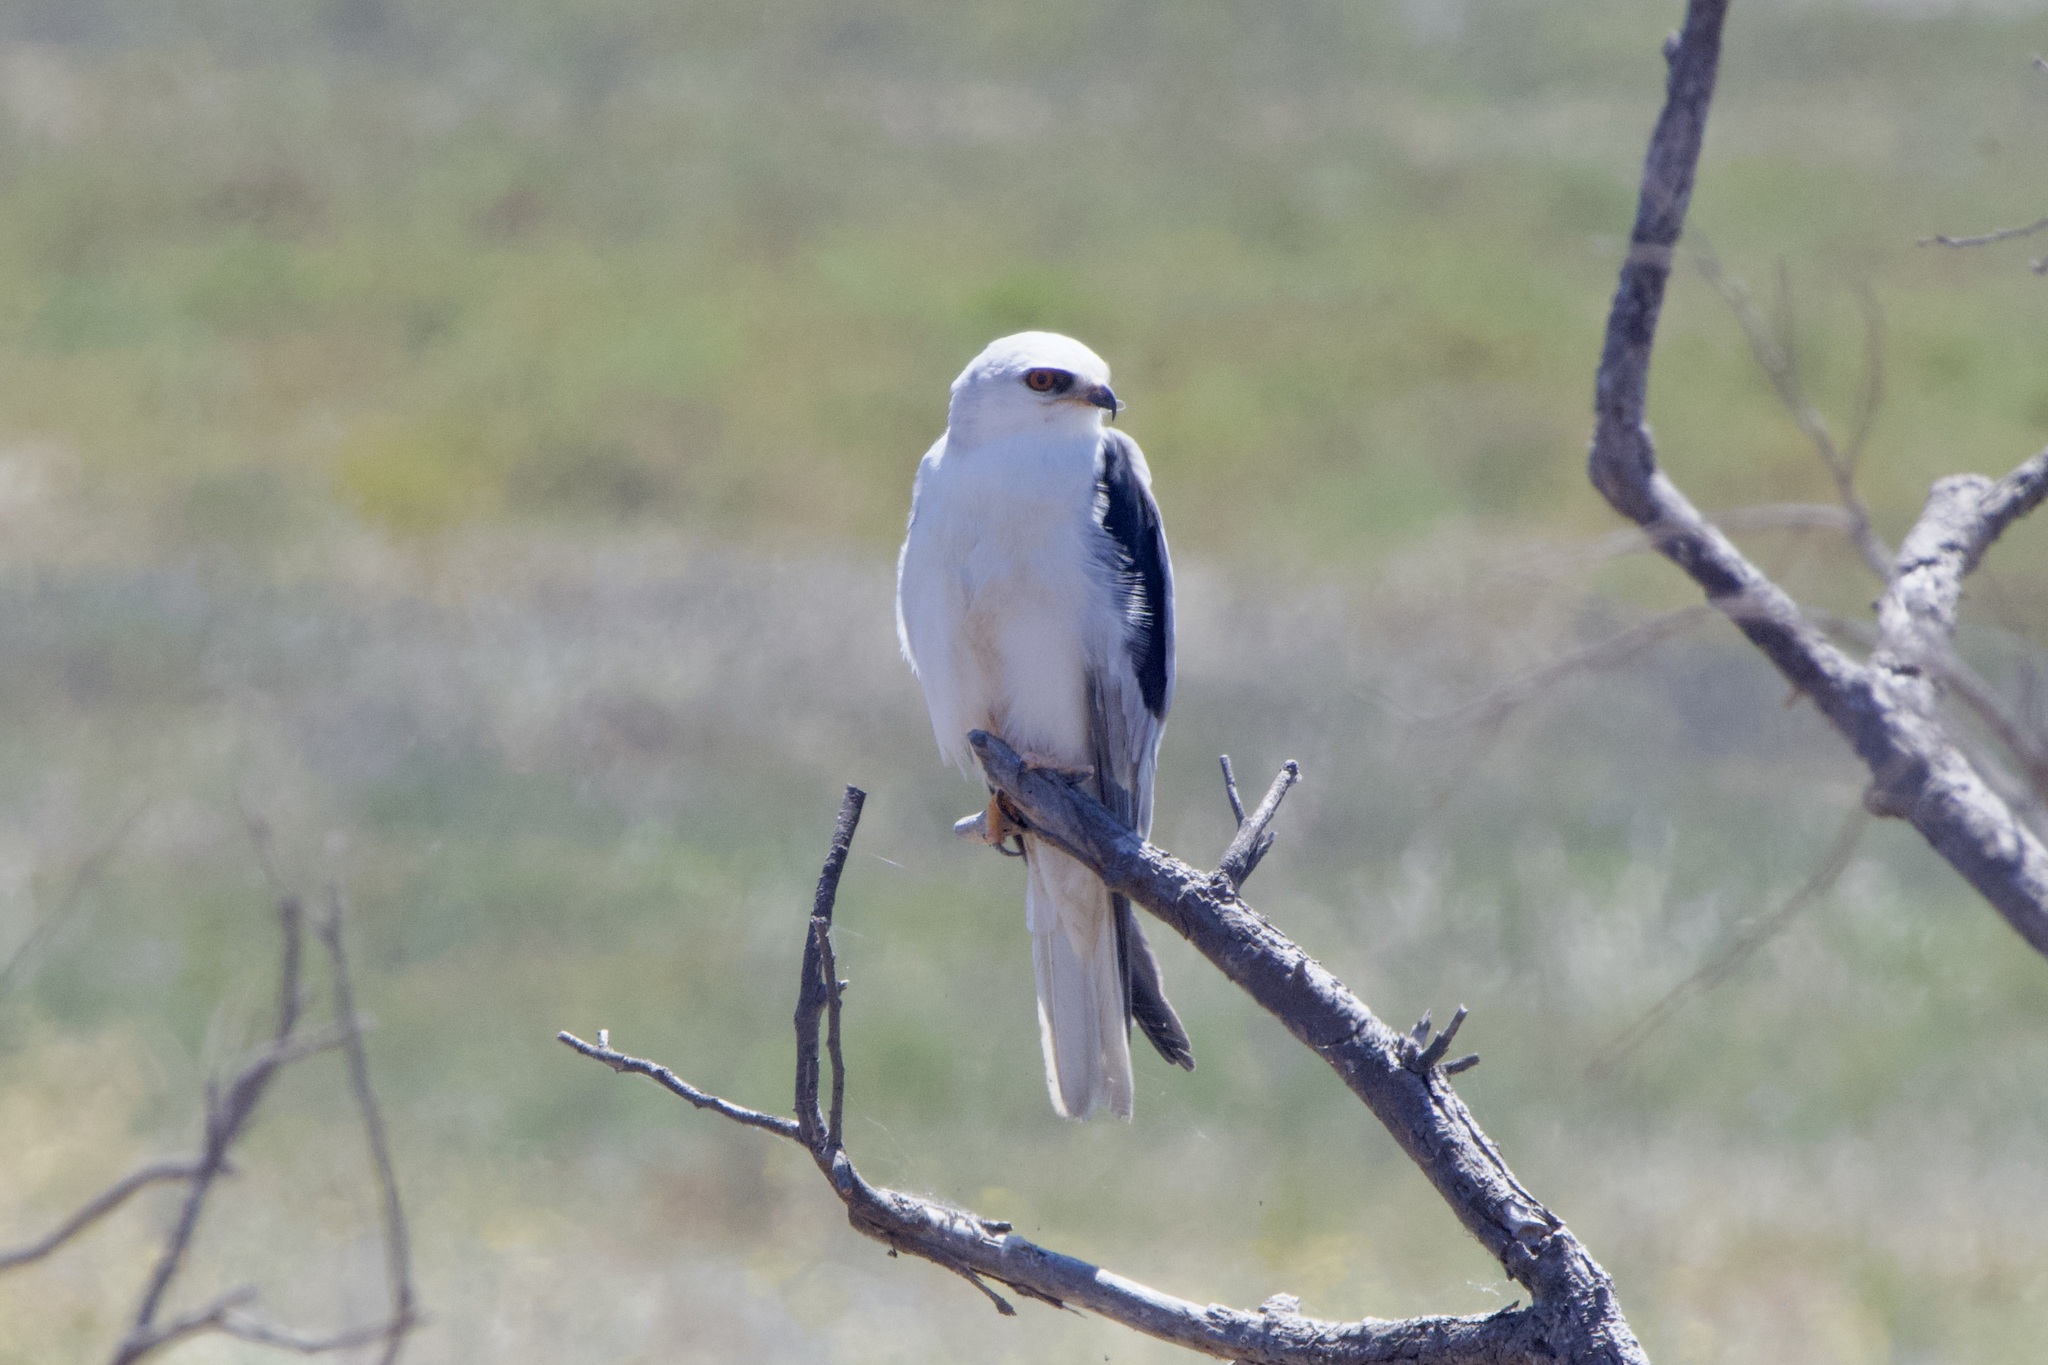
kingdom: Animalia
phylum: Chordata
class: Aves
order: Accipitriformes
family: Accipitridae
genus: Elanus
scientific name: Elanus leucurus
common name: White-tailed kite
